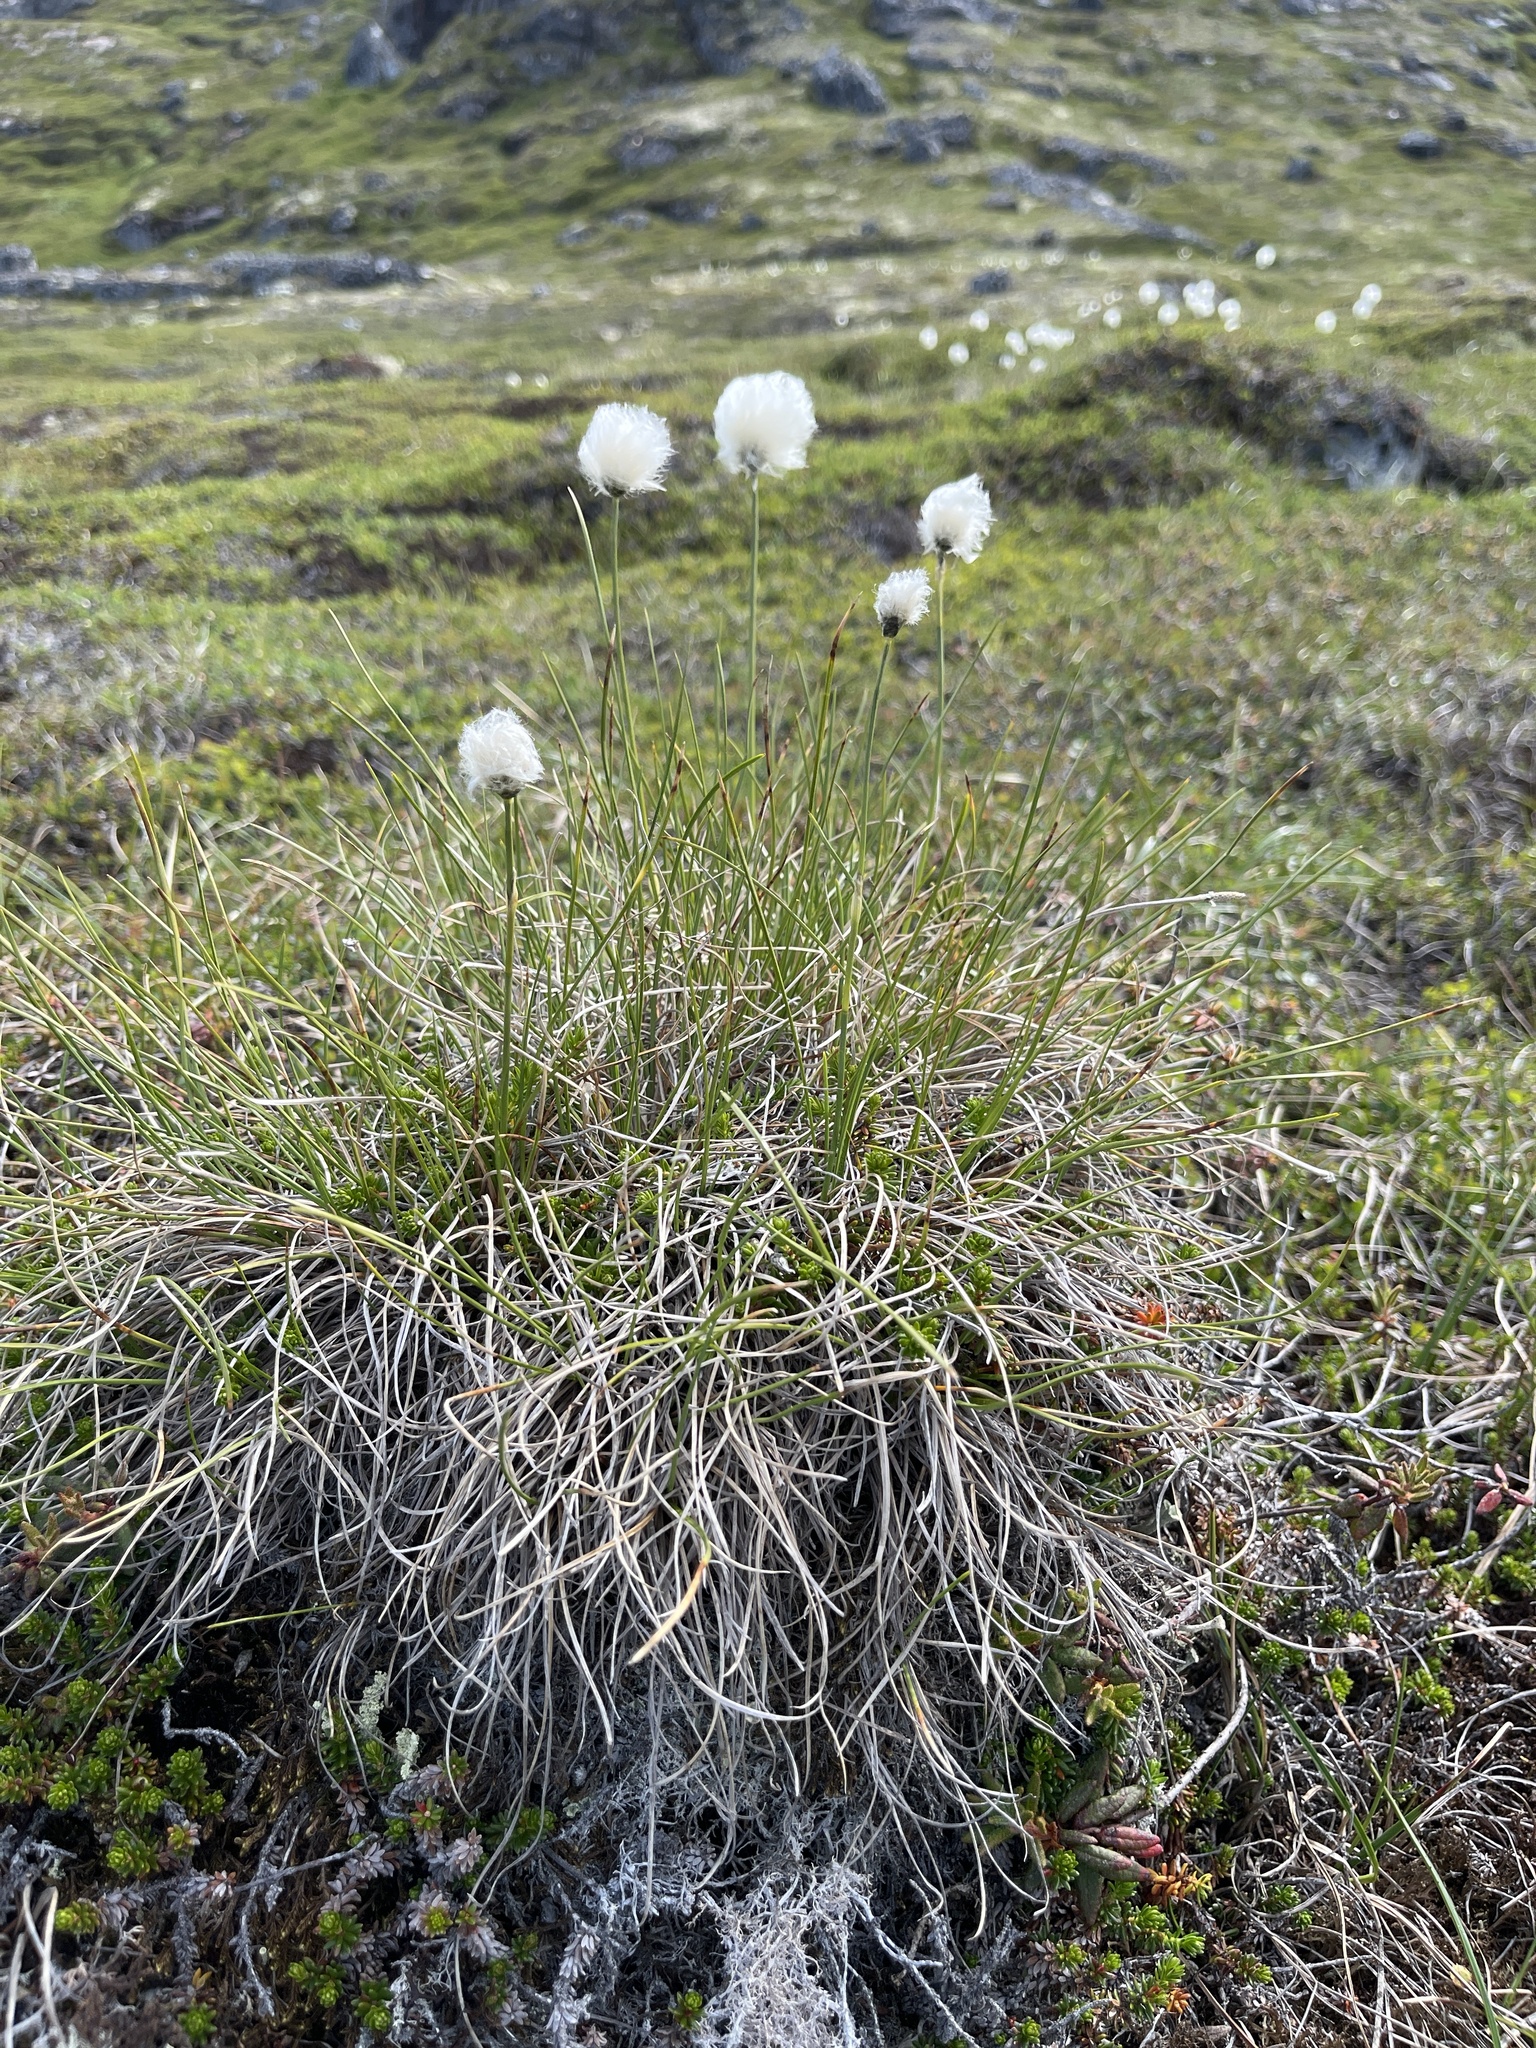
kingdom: Plantae
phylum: Tracheophyta
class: Liliopsida
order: Poales
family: Cyperaceae
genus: Eriophorum
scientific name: Eriophorum vaginatum
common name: Hare's-tail cottongrass
